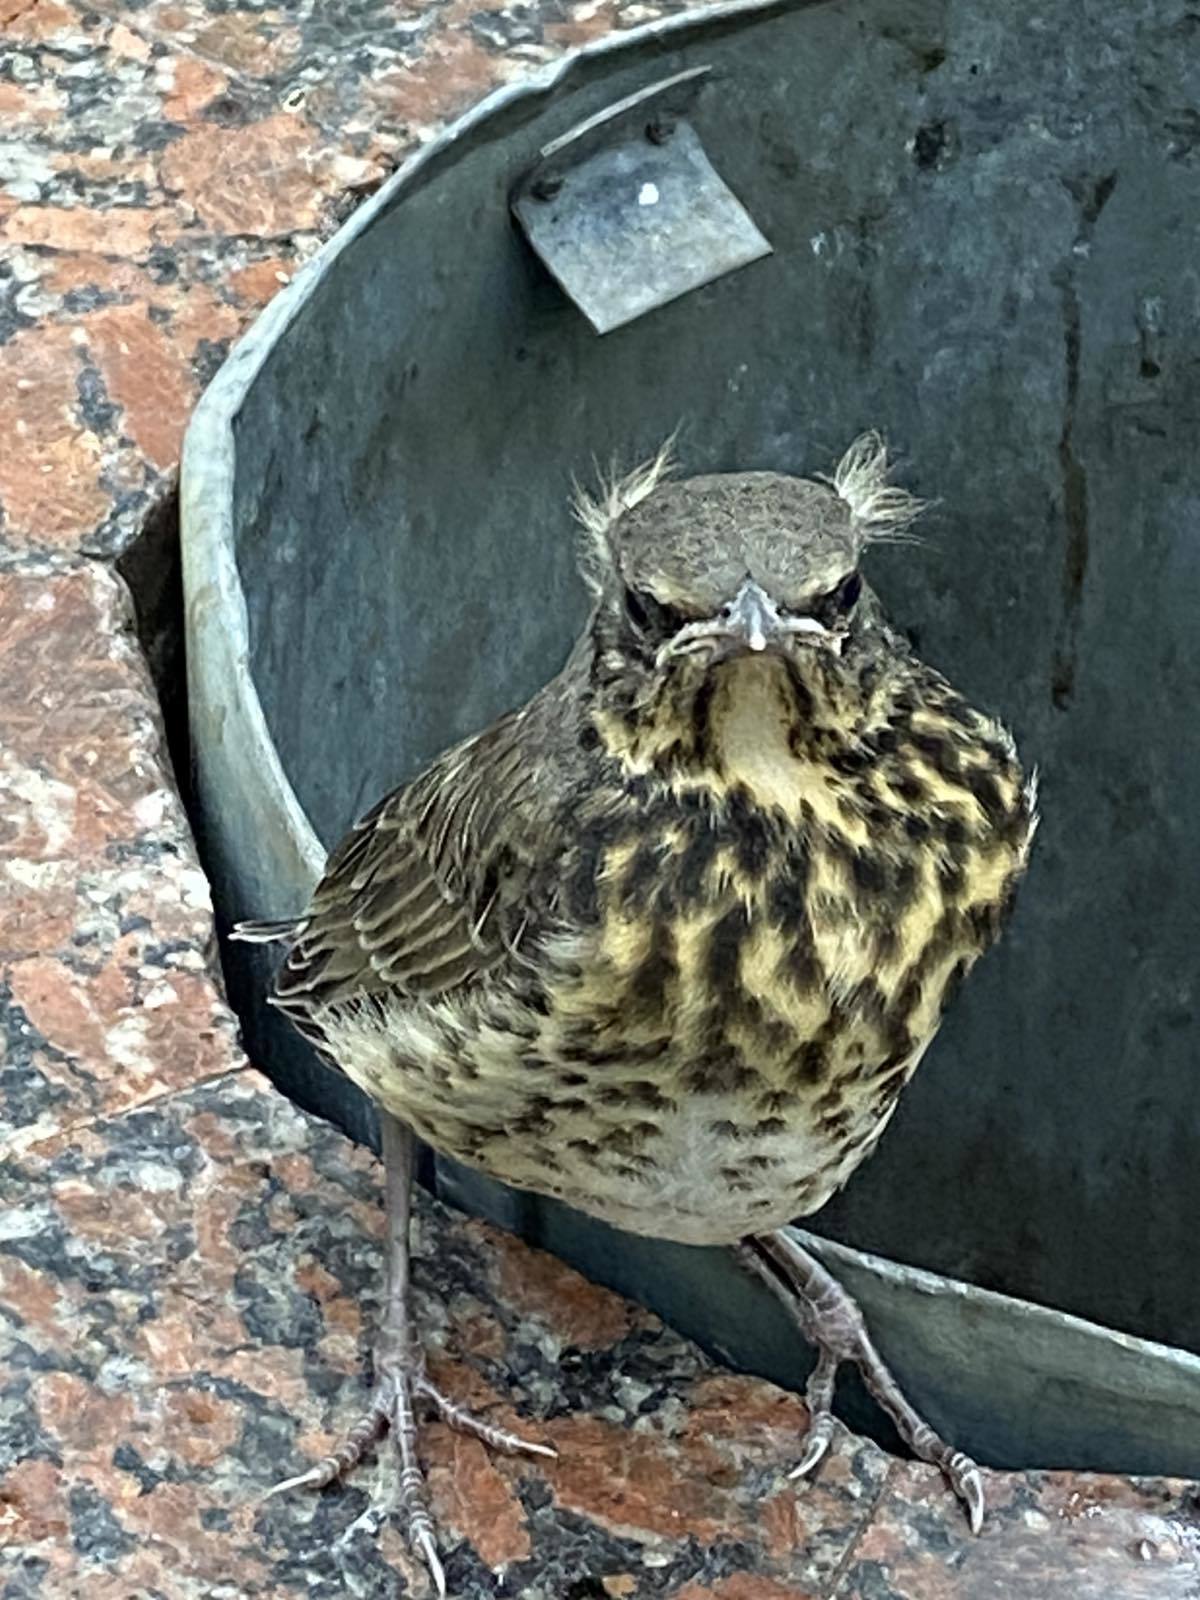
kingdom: Animalia
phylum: Chordata
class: Aves
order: Passeriformes
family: Turdidae
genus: Turdus
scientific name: Turdus pilaris
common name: Fieldfare
